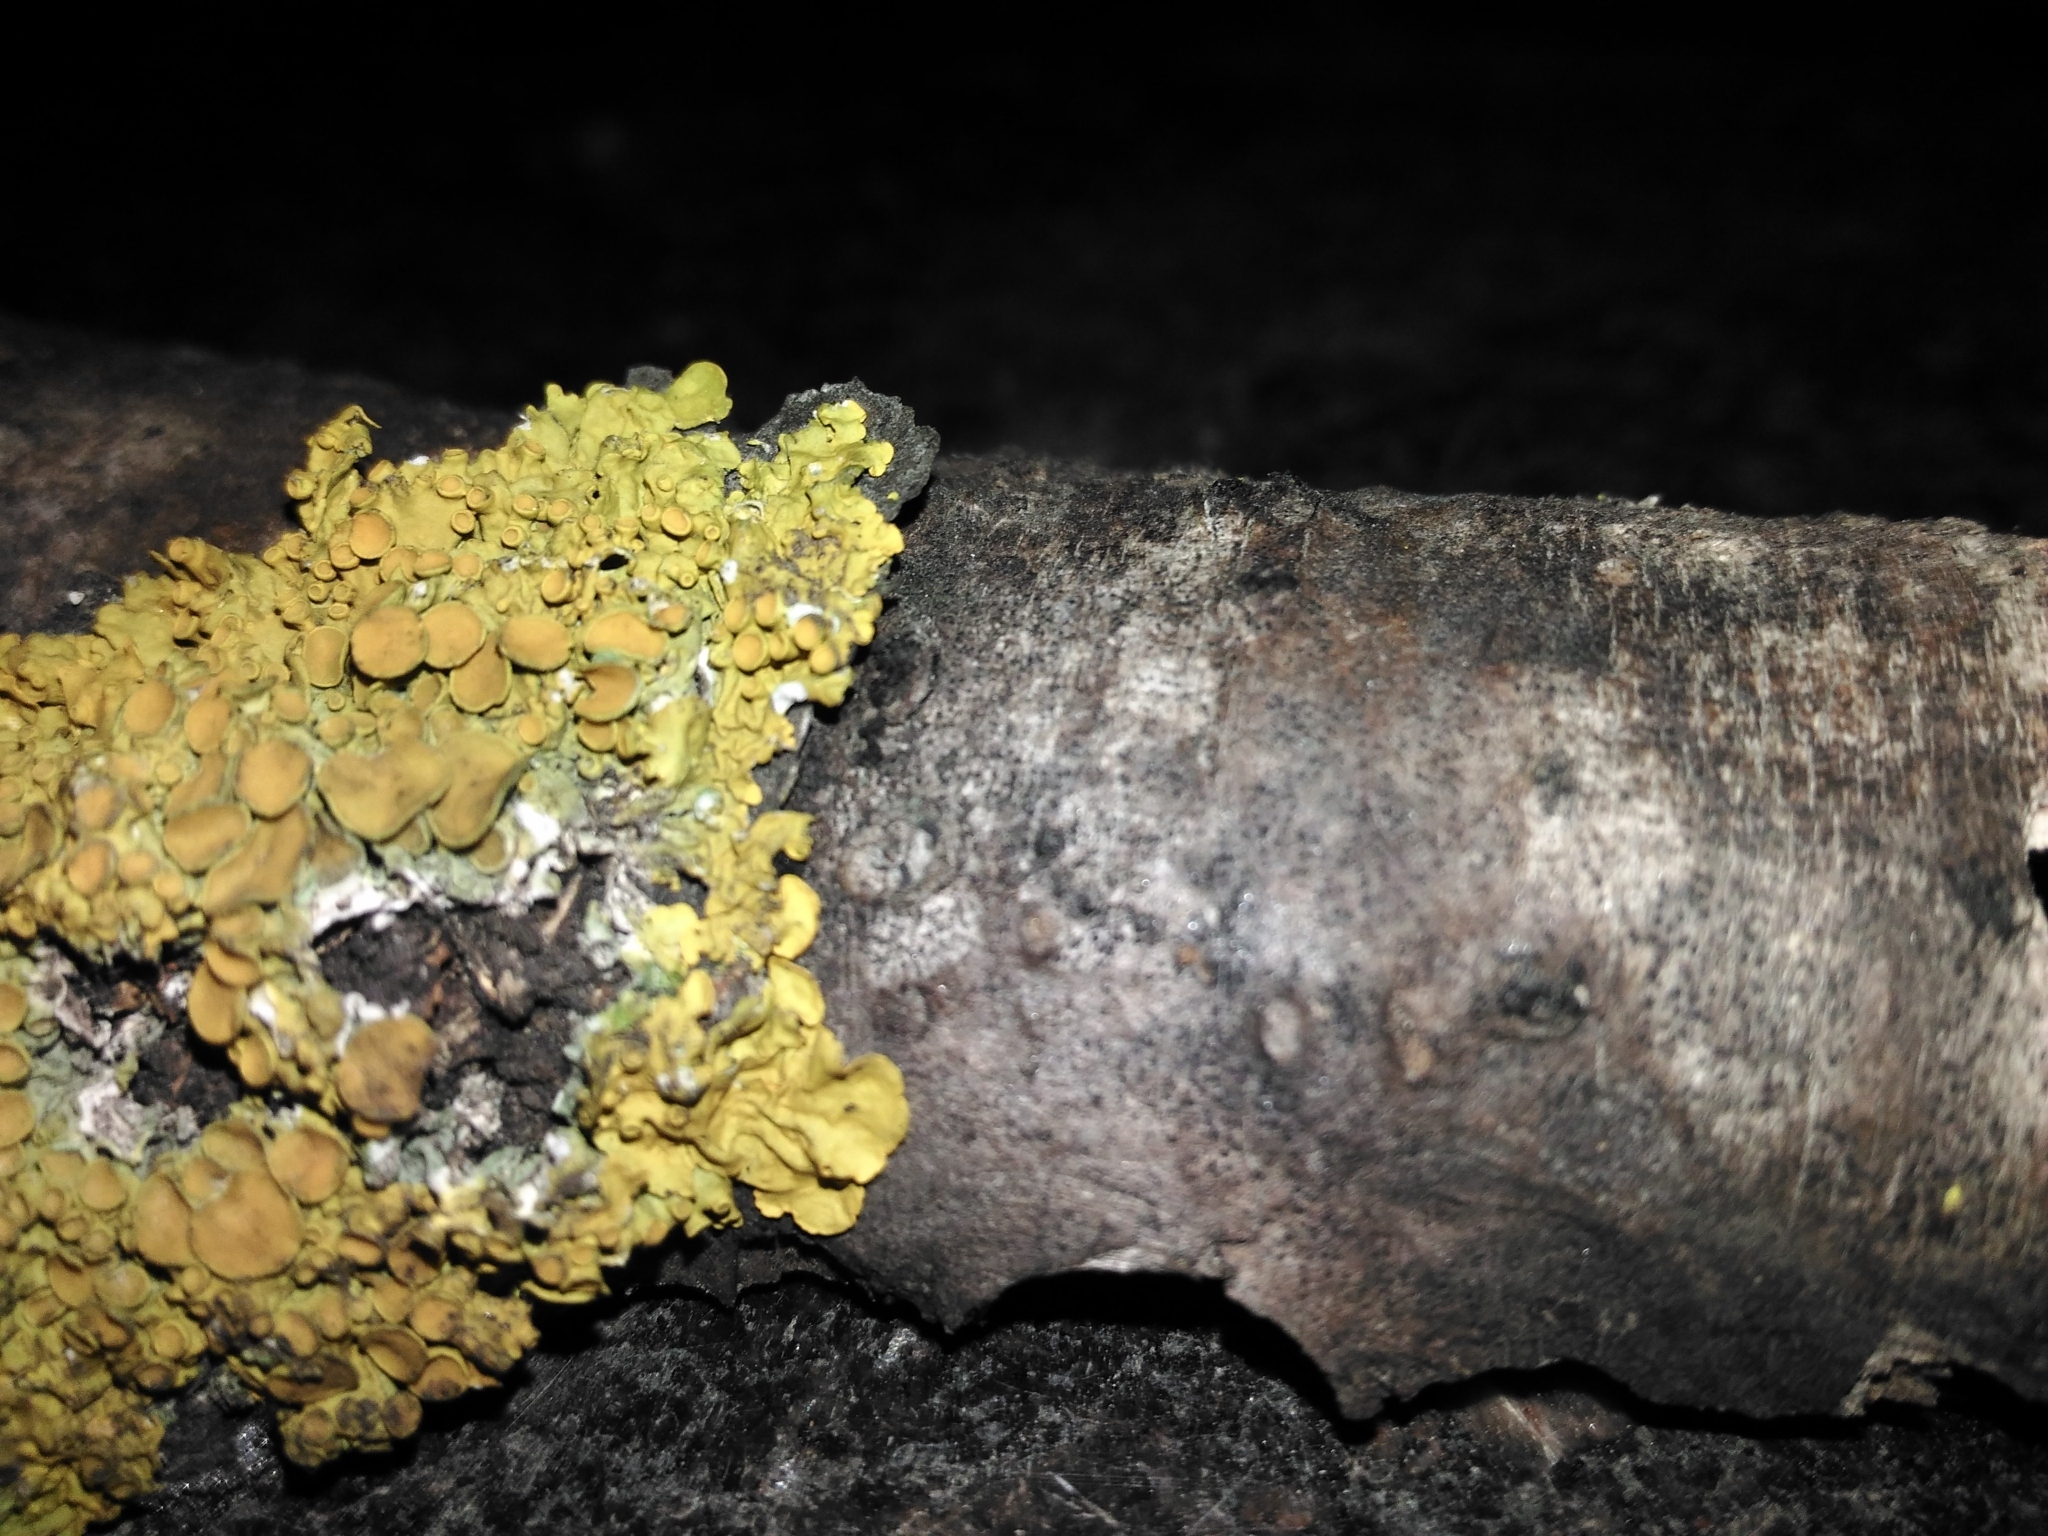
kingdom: Fungi
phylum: Ascomycota
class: Lecanoromycetes
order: Teloschistales
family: Teloschistaceae
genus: Xanthoria
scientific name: Xanthoria parietina
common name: Common orange lichen
